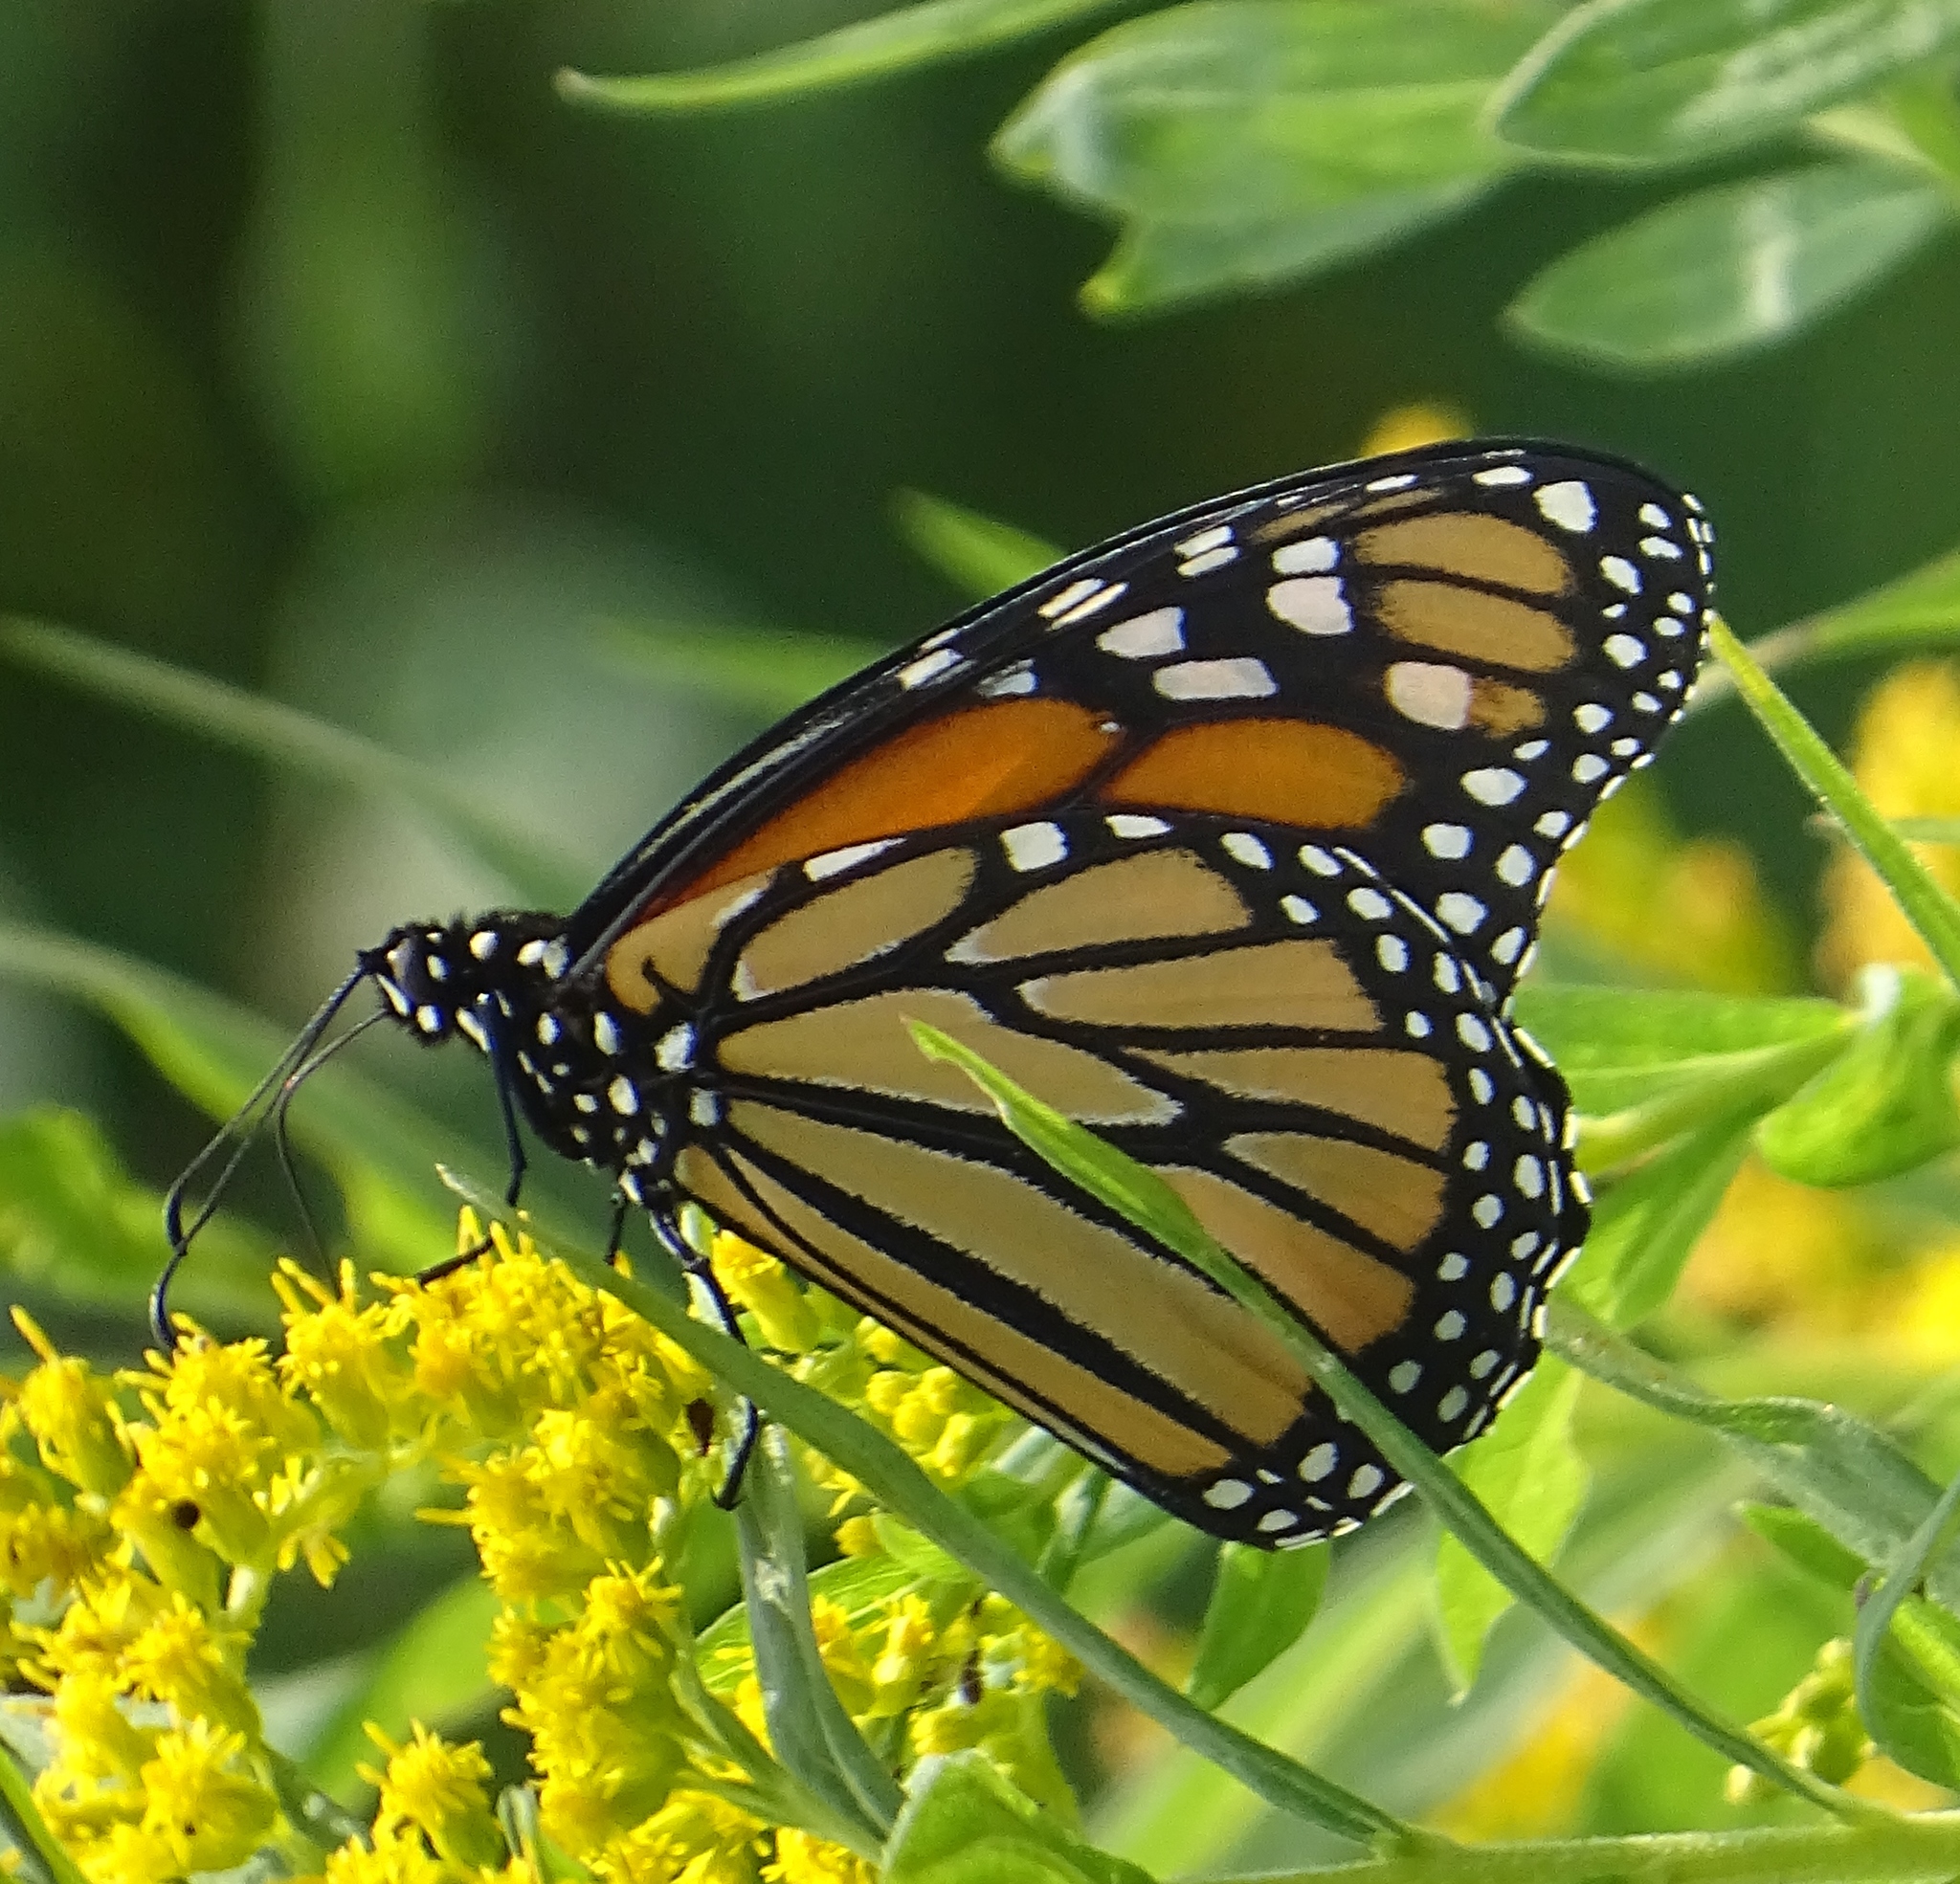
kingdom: Animalia
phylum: Arthropoda
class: Insecta
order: Lepidoptera
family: Nymphalidae
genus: Danaus
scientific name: Danaus plexippus
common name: Monarch
